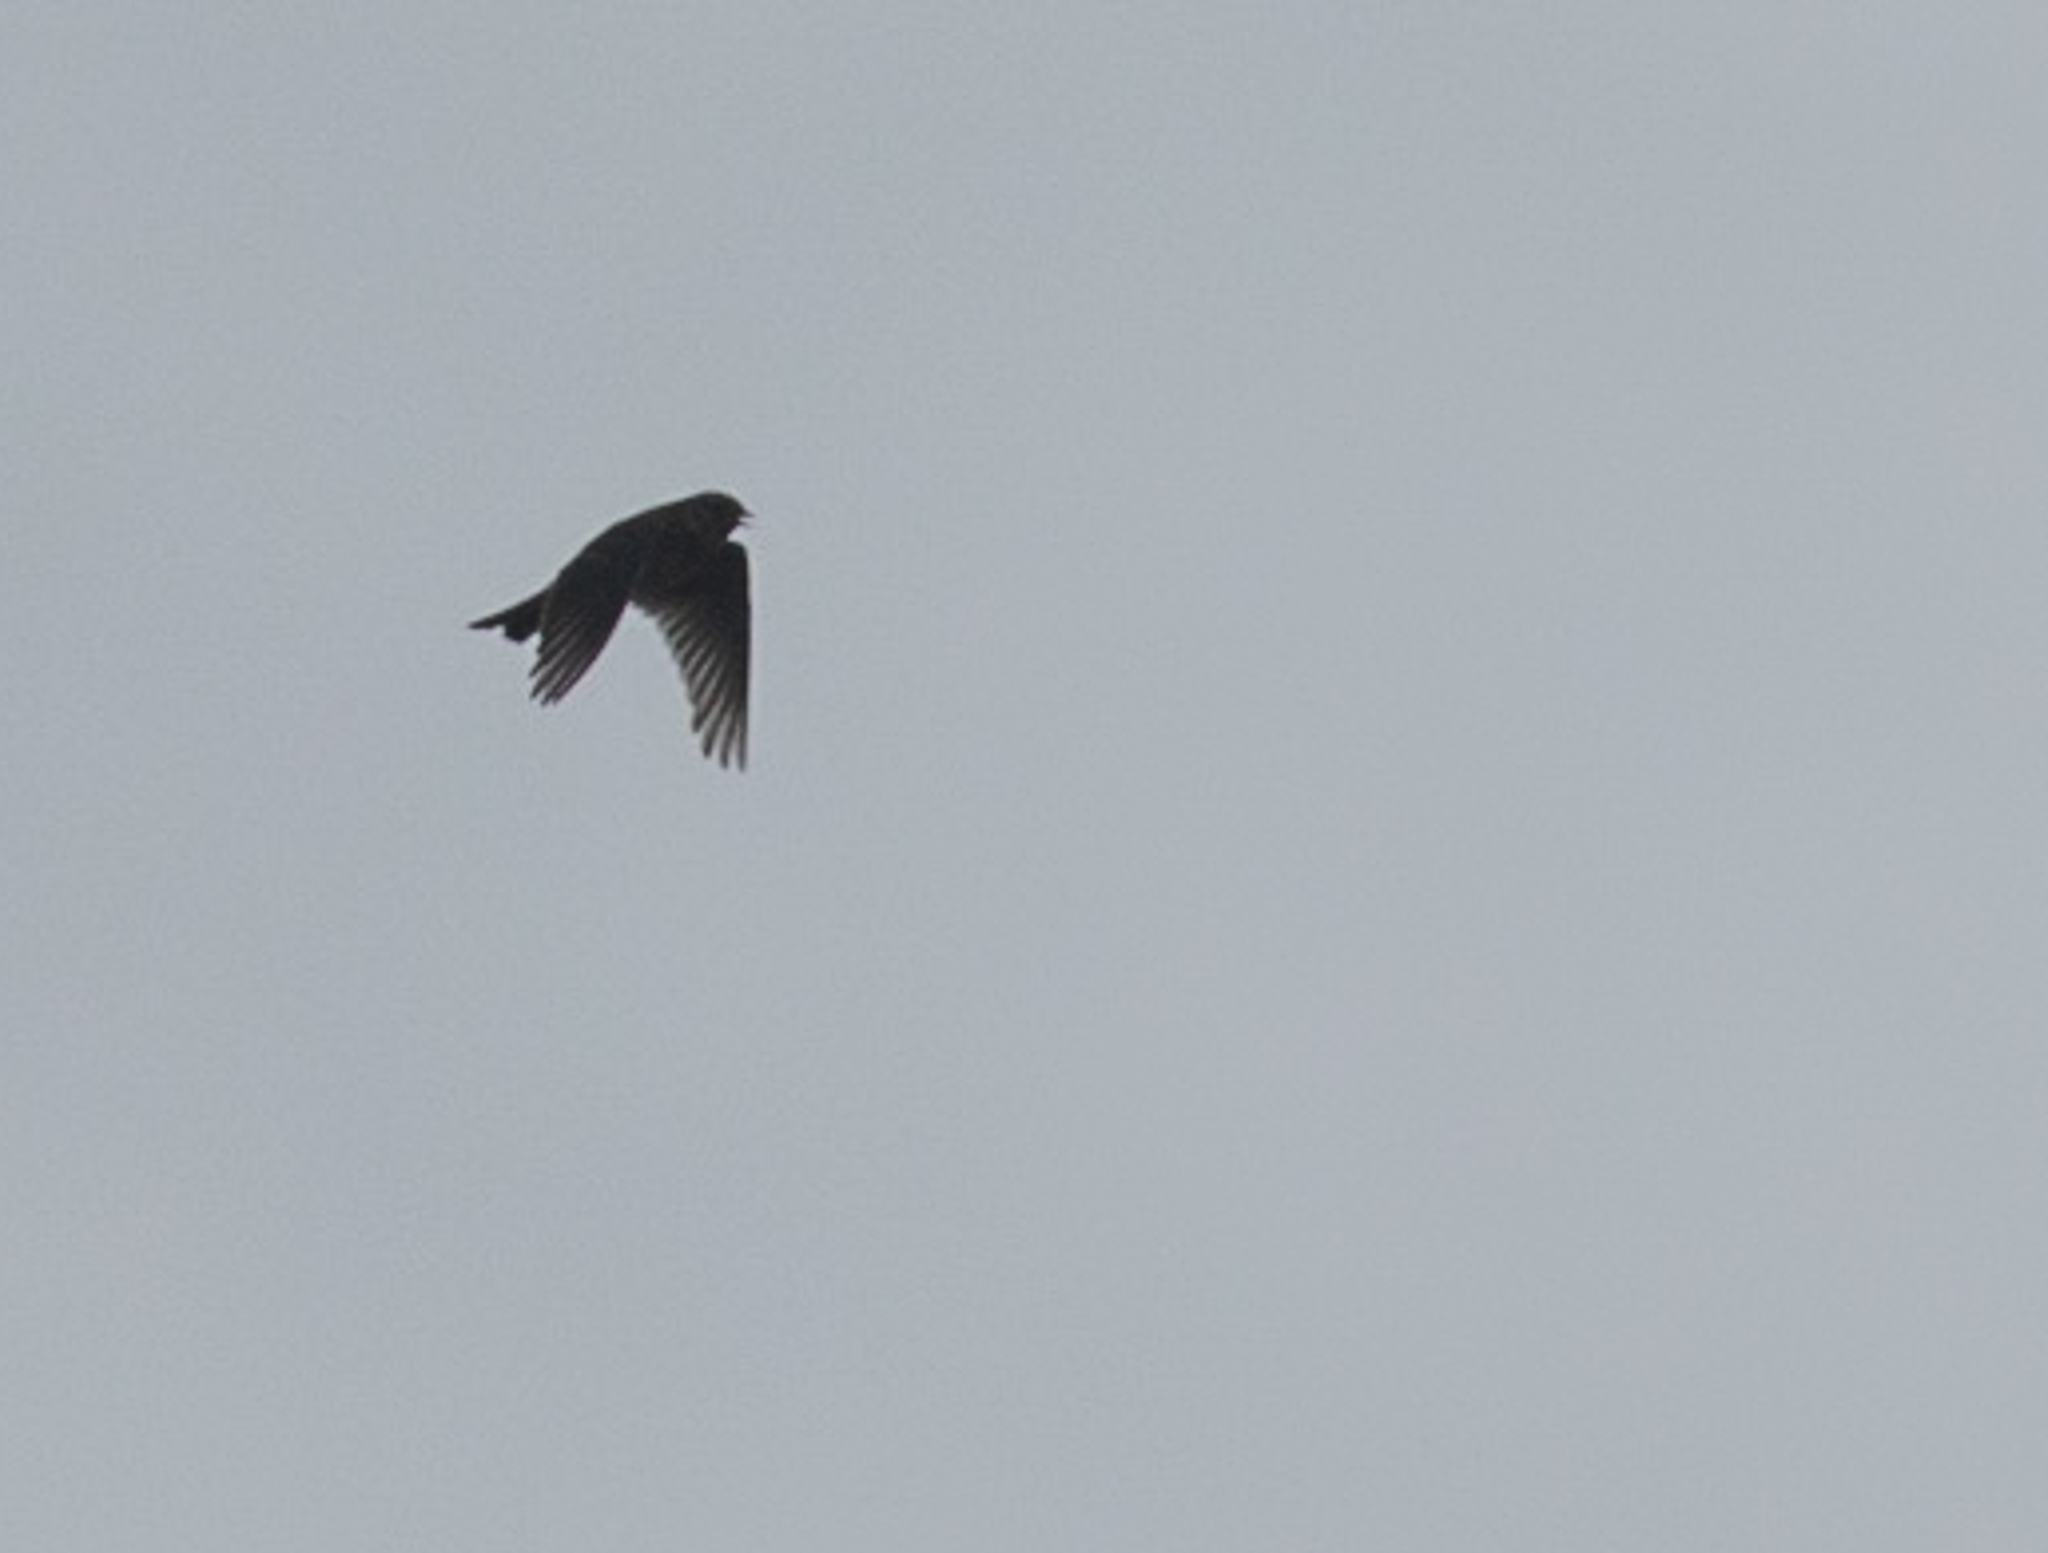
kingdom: Animalia
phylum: Chordata
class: Aves
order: Passeriformes
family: Alaudidae
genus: Alauda
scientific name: Alauda arvensis
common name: Eurasian skylark
